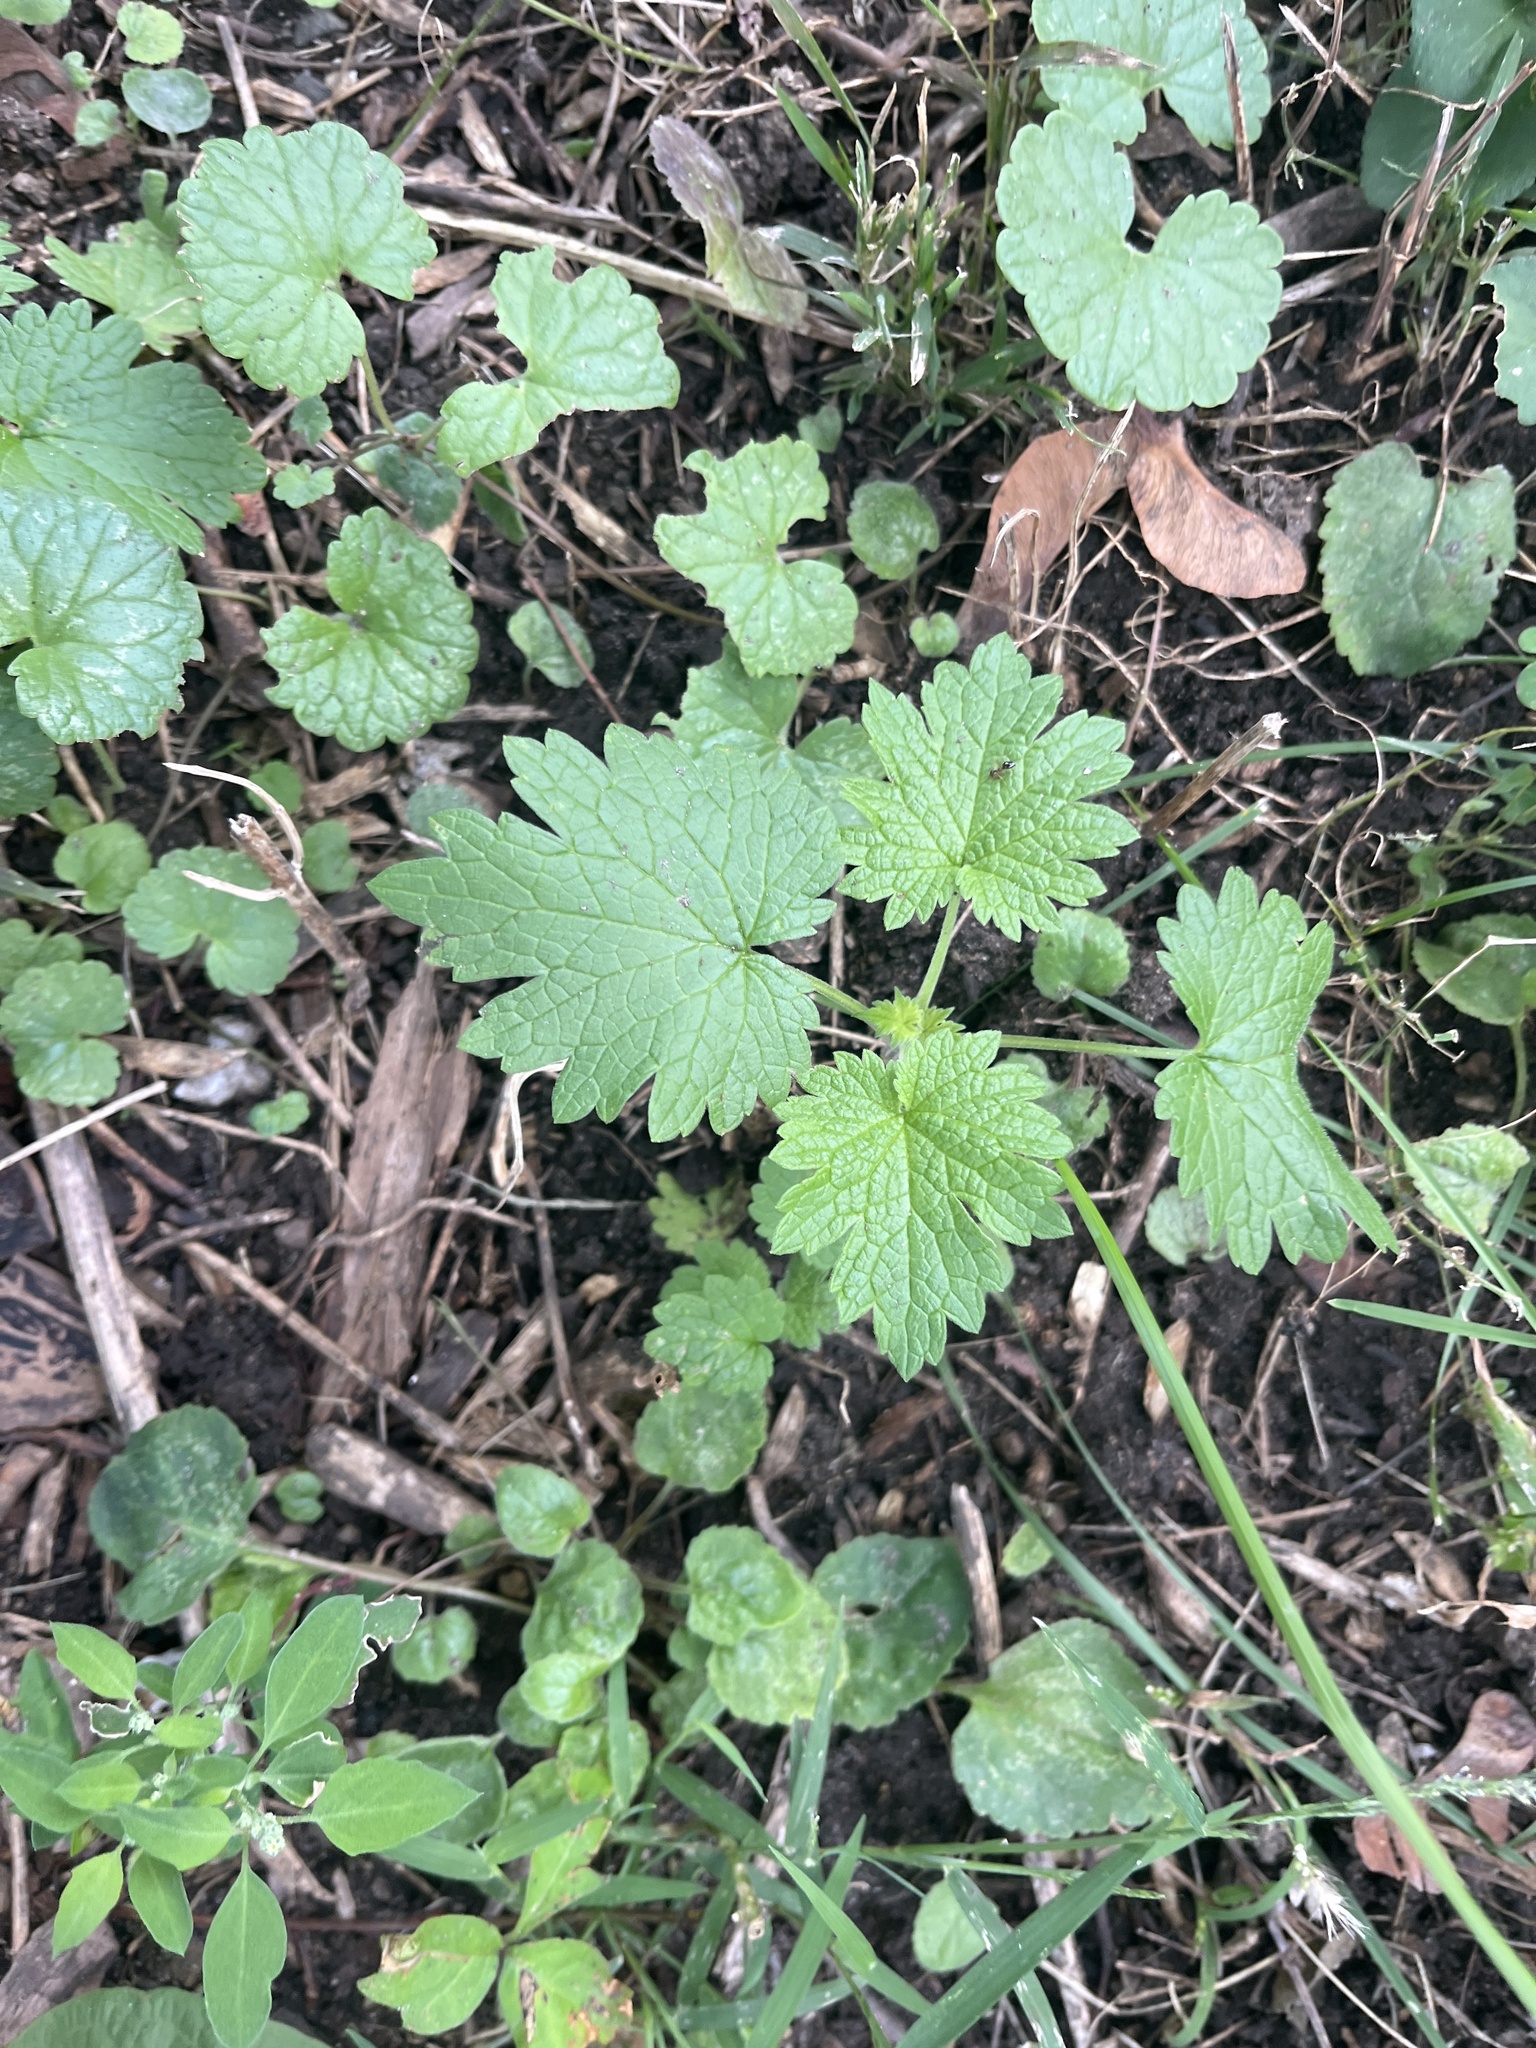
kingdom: Plantae
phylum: Tracheophyta
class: Magnoliopsida
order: Lamiales
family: Lamiaceae
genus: Leonurus
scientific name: Leonurus cardiaca
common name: Motherwort
